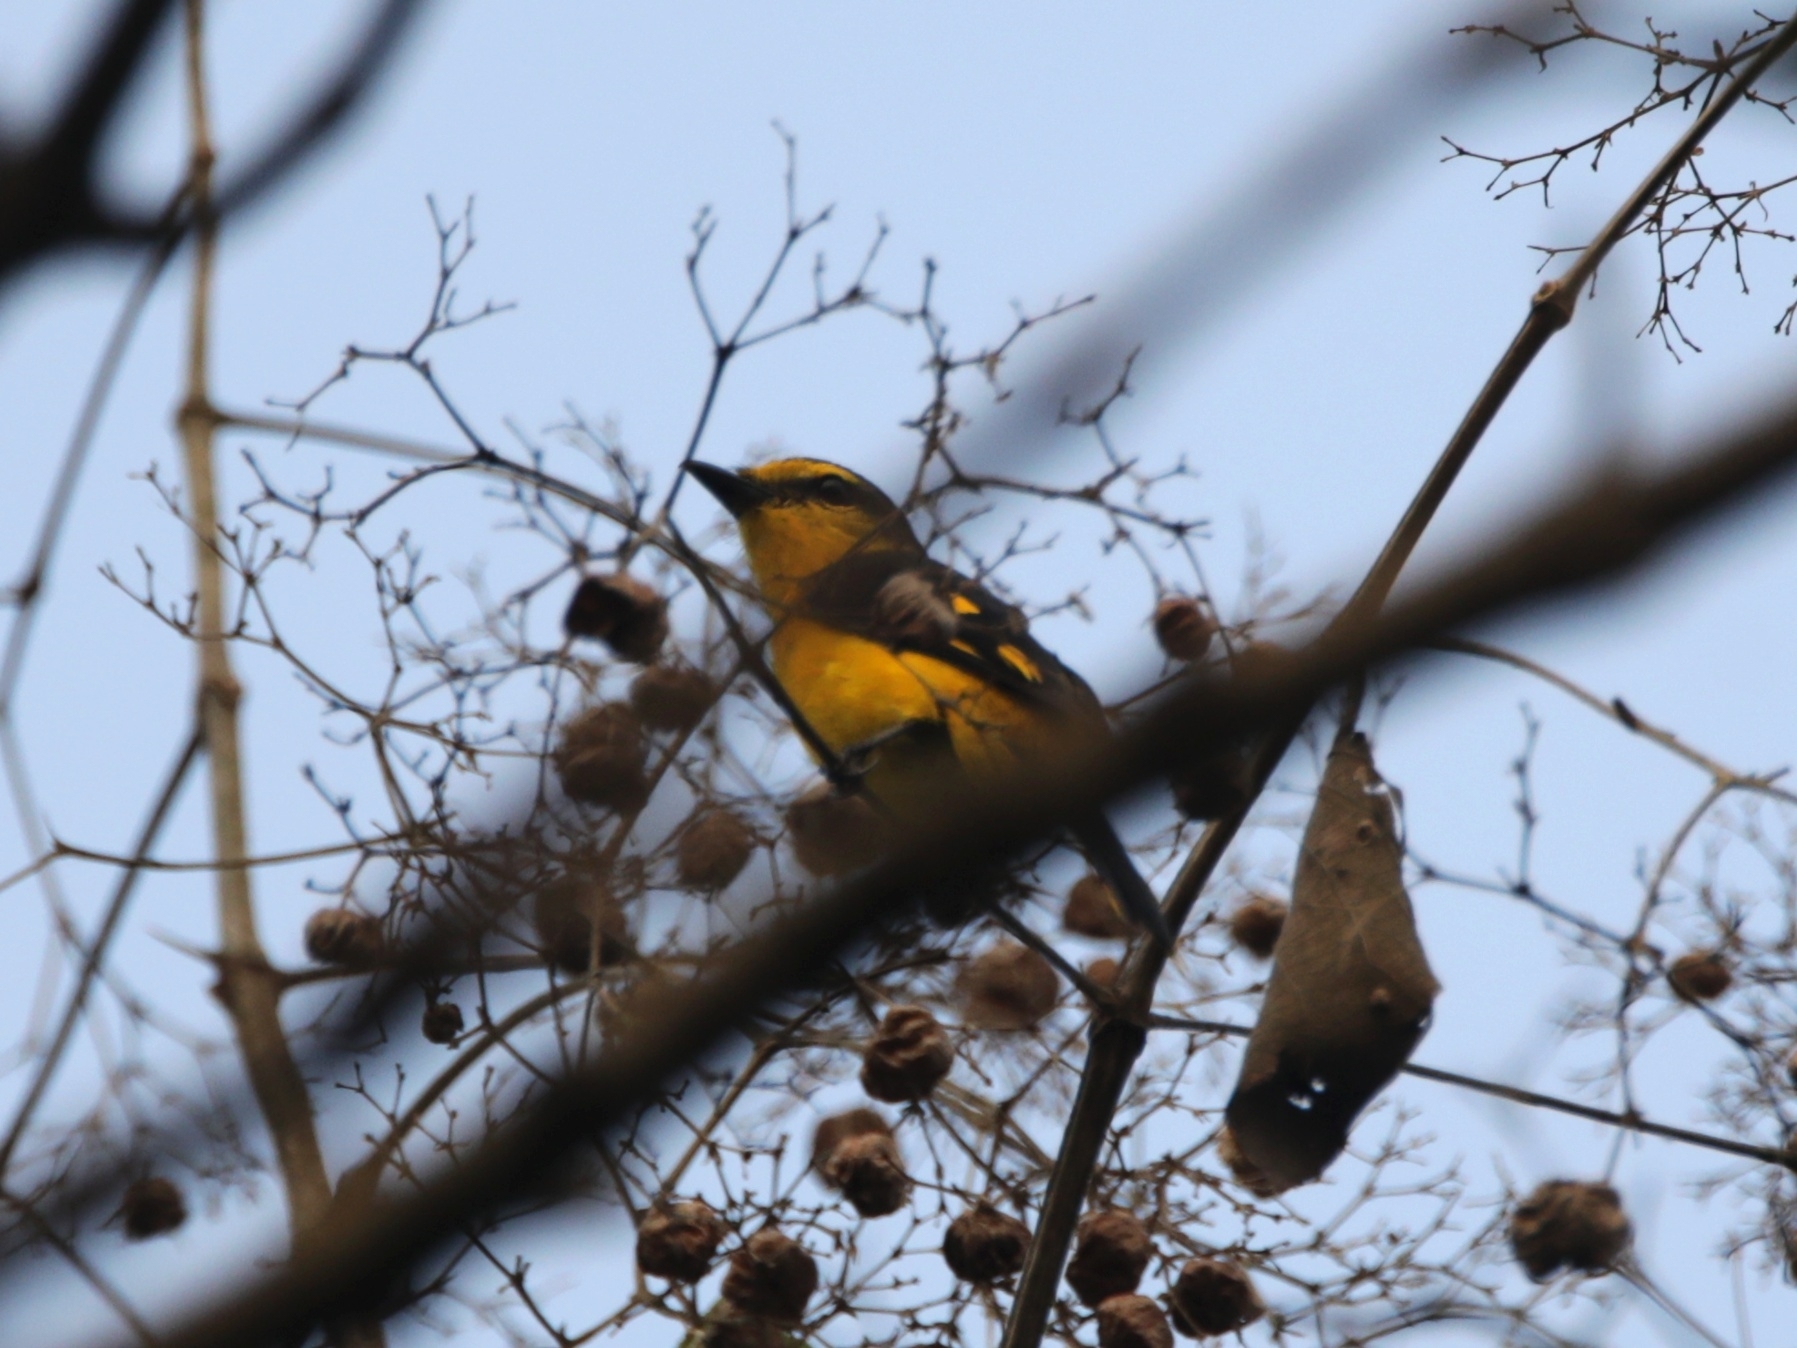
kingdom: Animalia
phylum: Chordata
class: Aves
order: Passeriformes
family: Campephagidae
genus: Pericrocotus
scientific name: Pericrocotus flammeus
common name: Orange minivet
